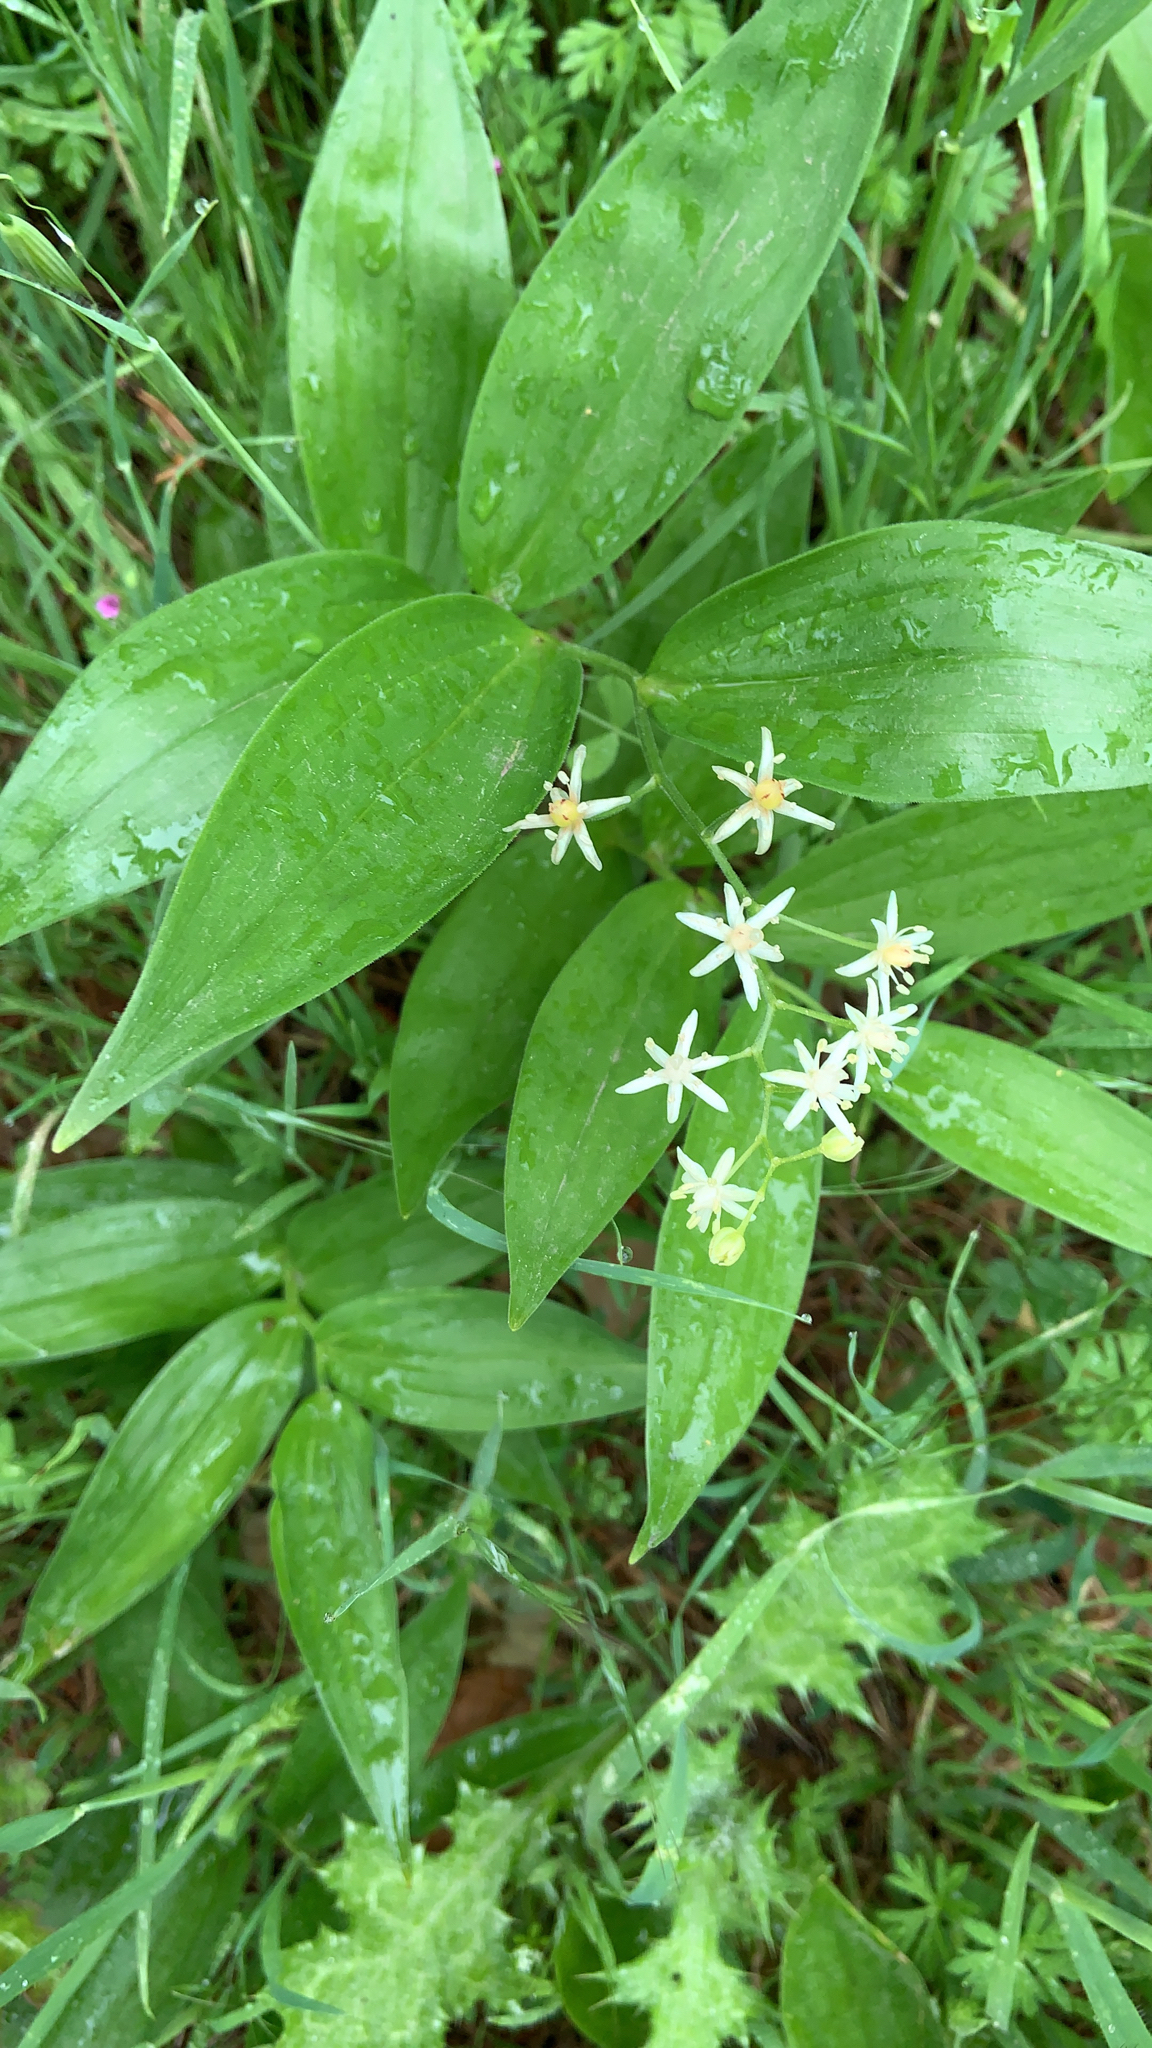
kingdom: Plantae
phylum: Tracheophyta
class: Liliopsida
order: Asparagales
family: Asparagaceae
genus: Maianthemum
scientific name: Maianthemum stellatum
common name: Little false solomon's seal
